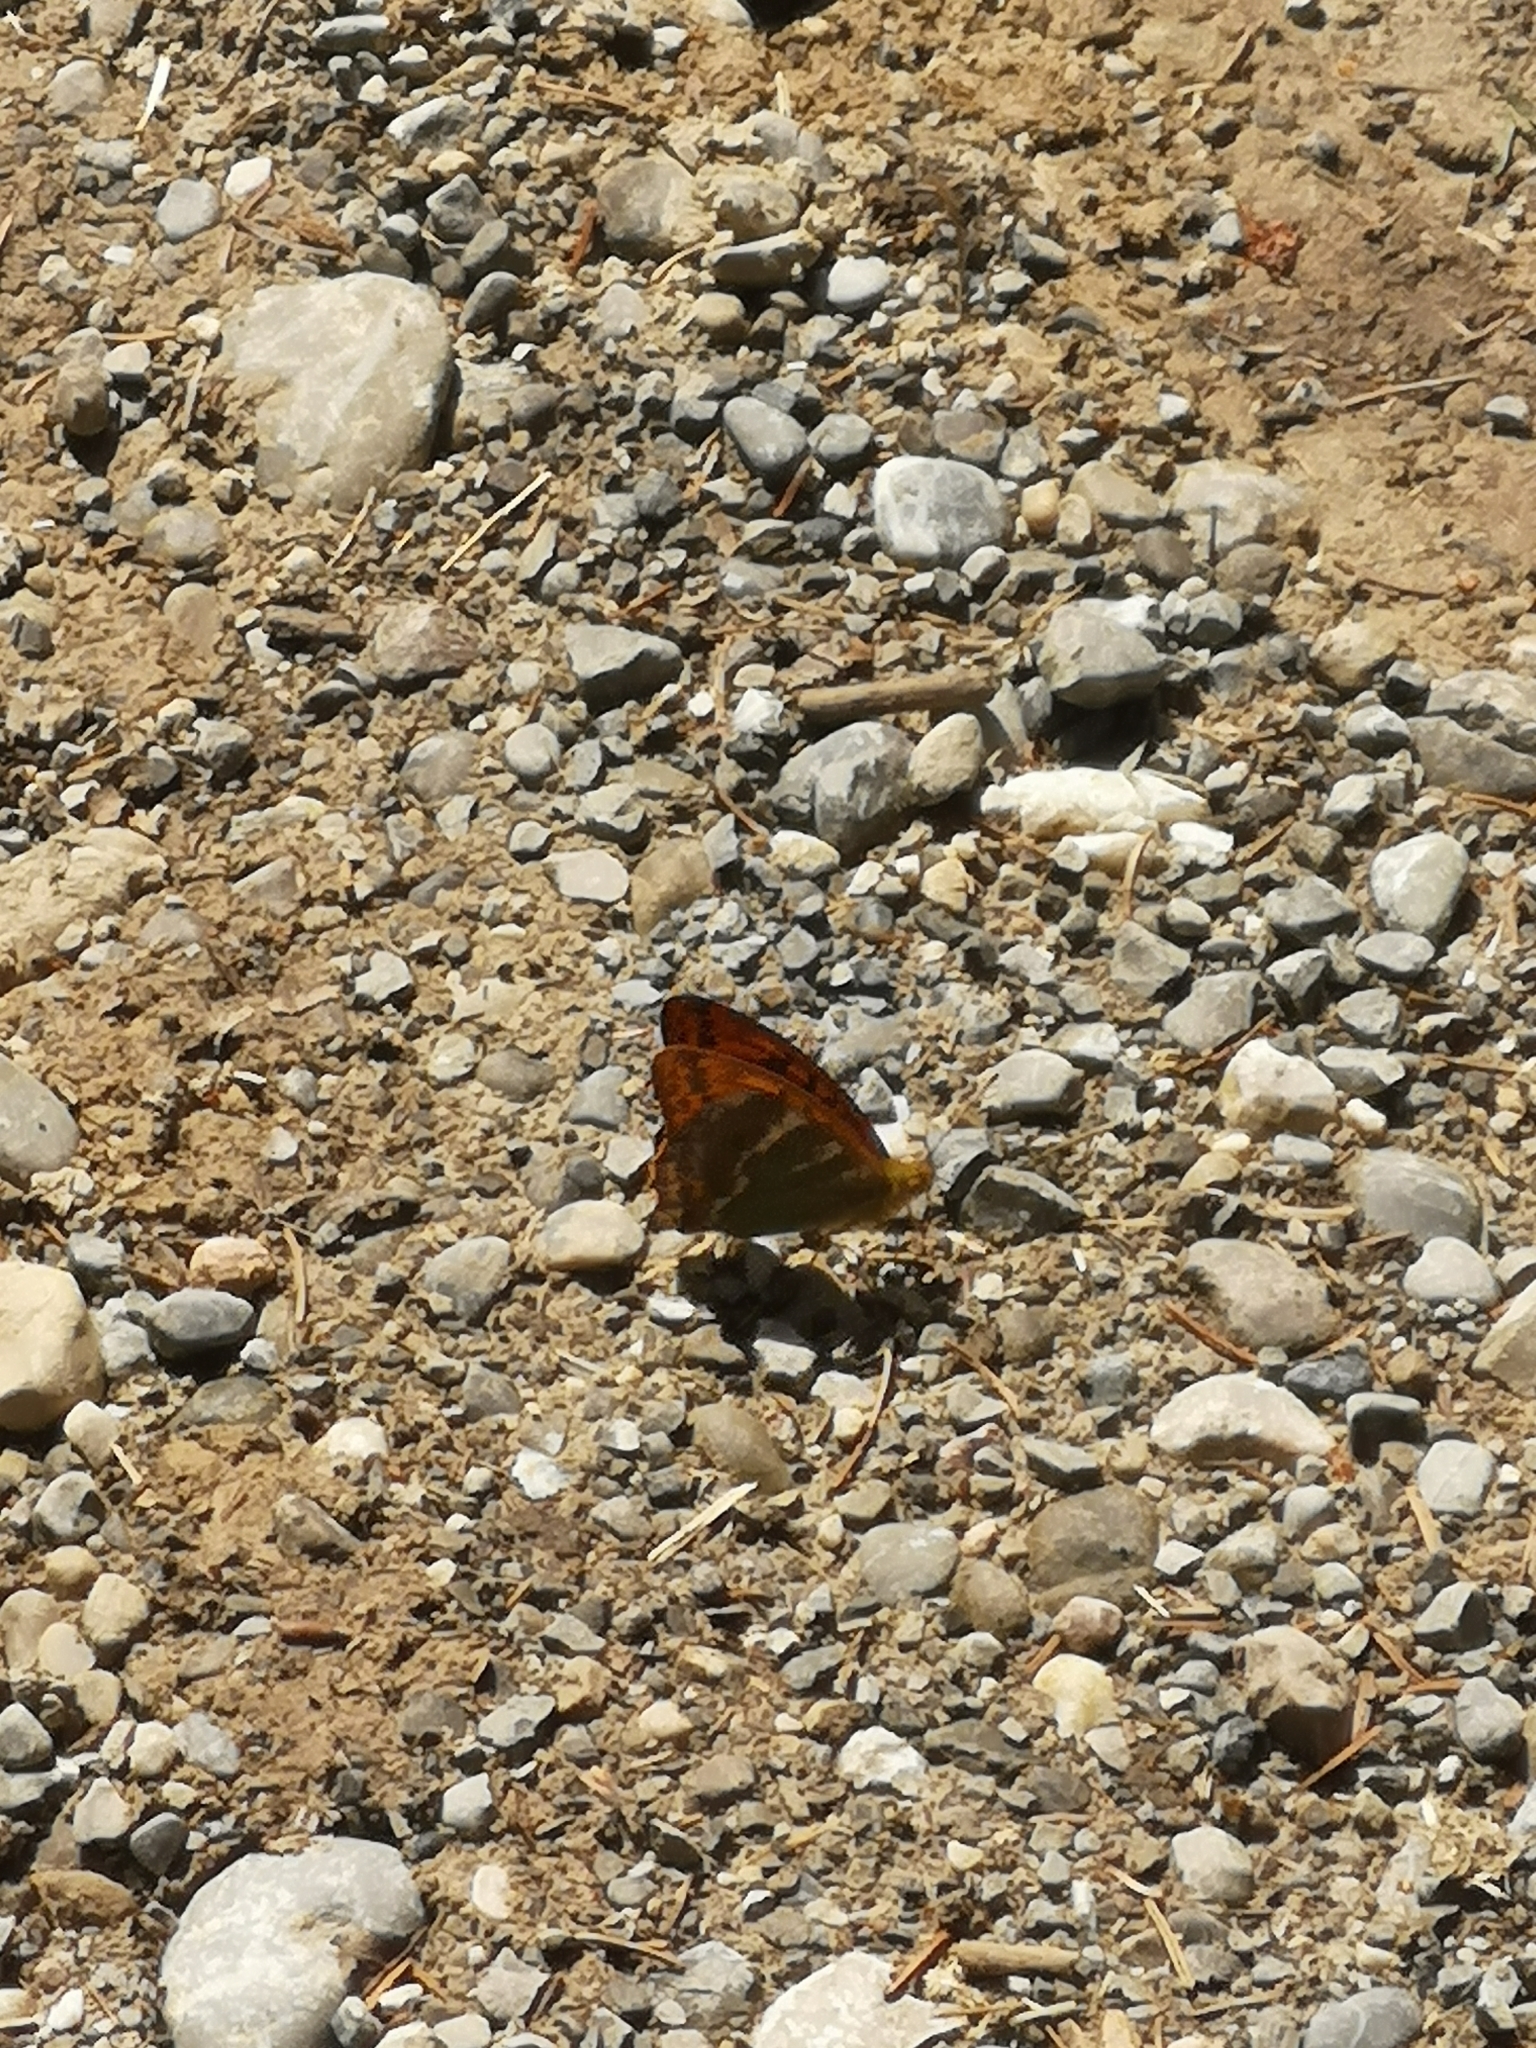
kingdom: Animalia
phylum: Arthropoda
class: Insecta
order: Lepidoptera
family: Nymphalidae
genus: Argynnis
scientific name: Argynnis paphia
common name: Silver-washed fritillary
